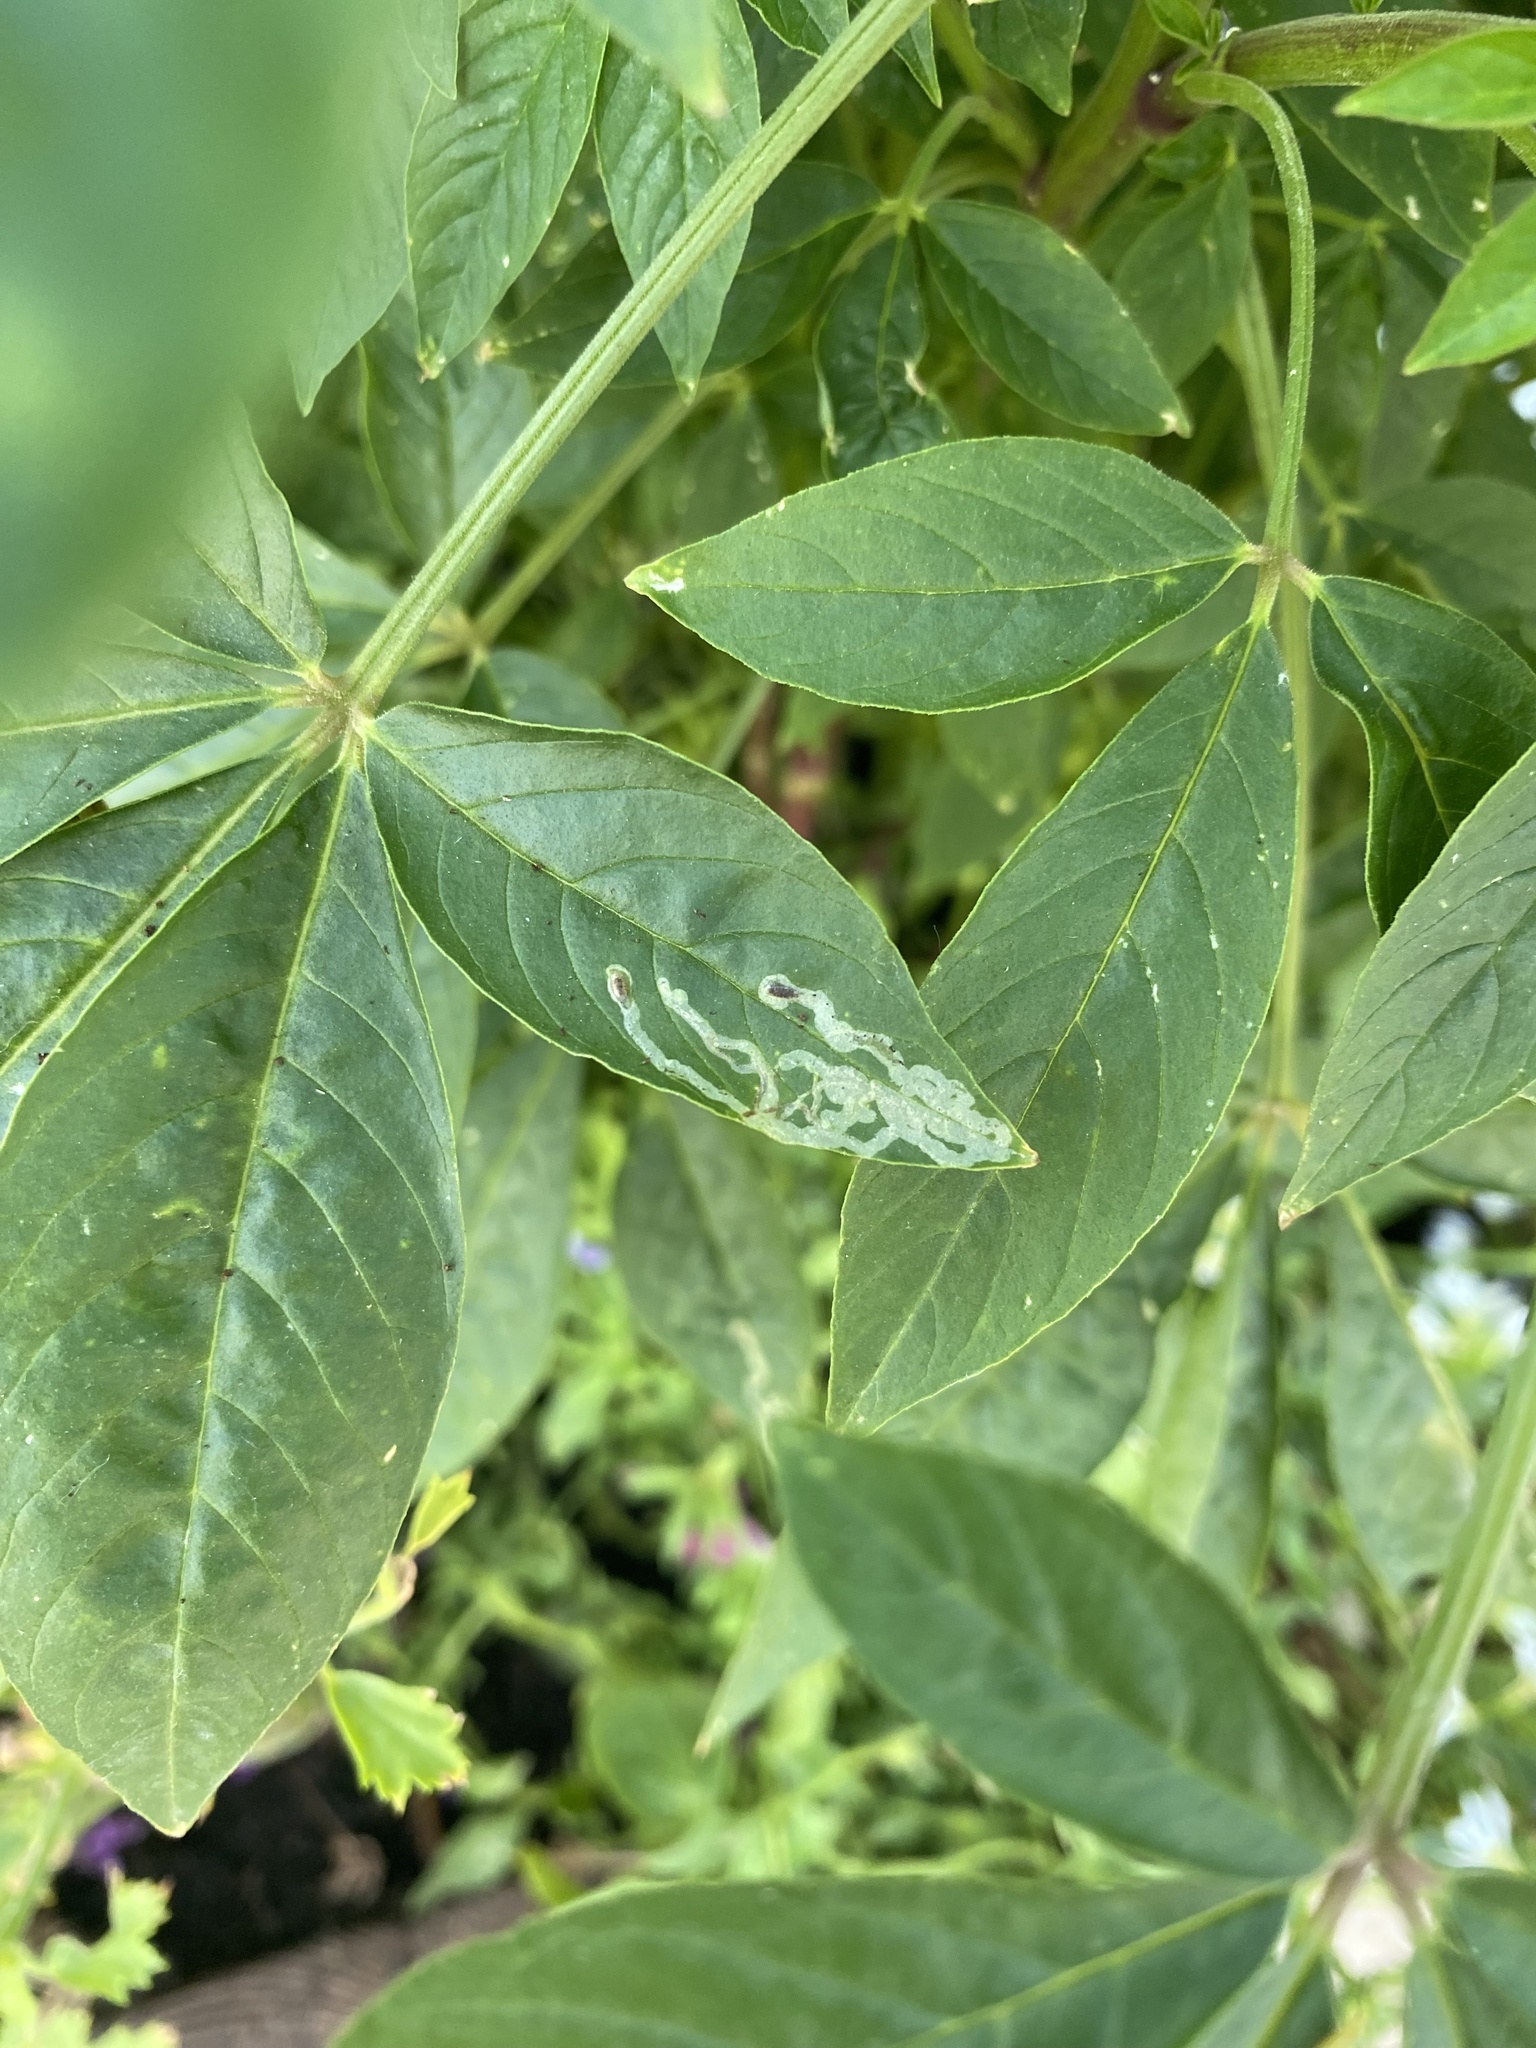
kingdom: Animalia
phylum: Arthropoda
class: Insecta
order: Diptera
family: Agromyzidae
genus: Liriomyza
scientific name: Liriomyza
